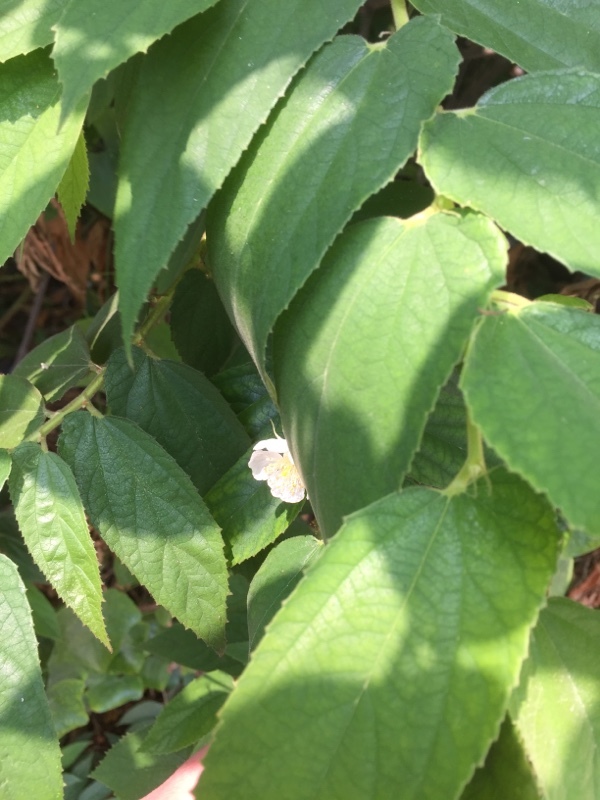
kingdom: Plantae
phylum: Tracheophyta
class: Magnoliopsida
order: Malvales
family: Muntingiaceae
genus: Muntingia
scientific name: Muntingia calabura
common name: Strawberrytree
